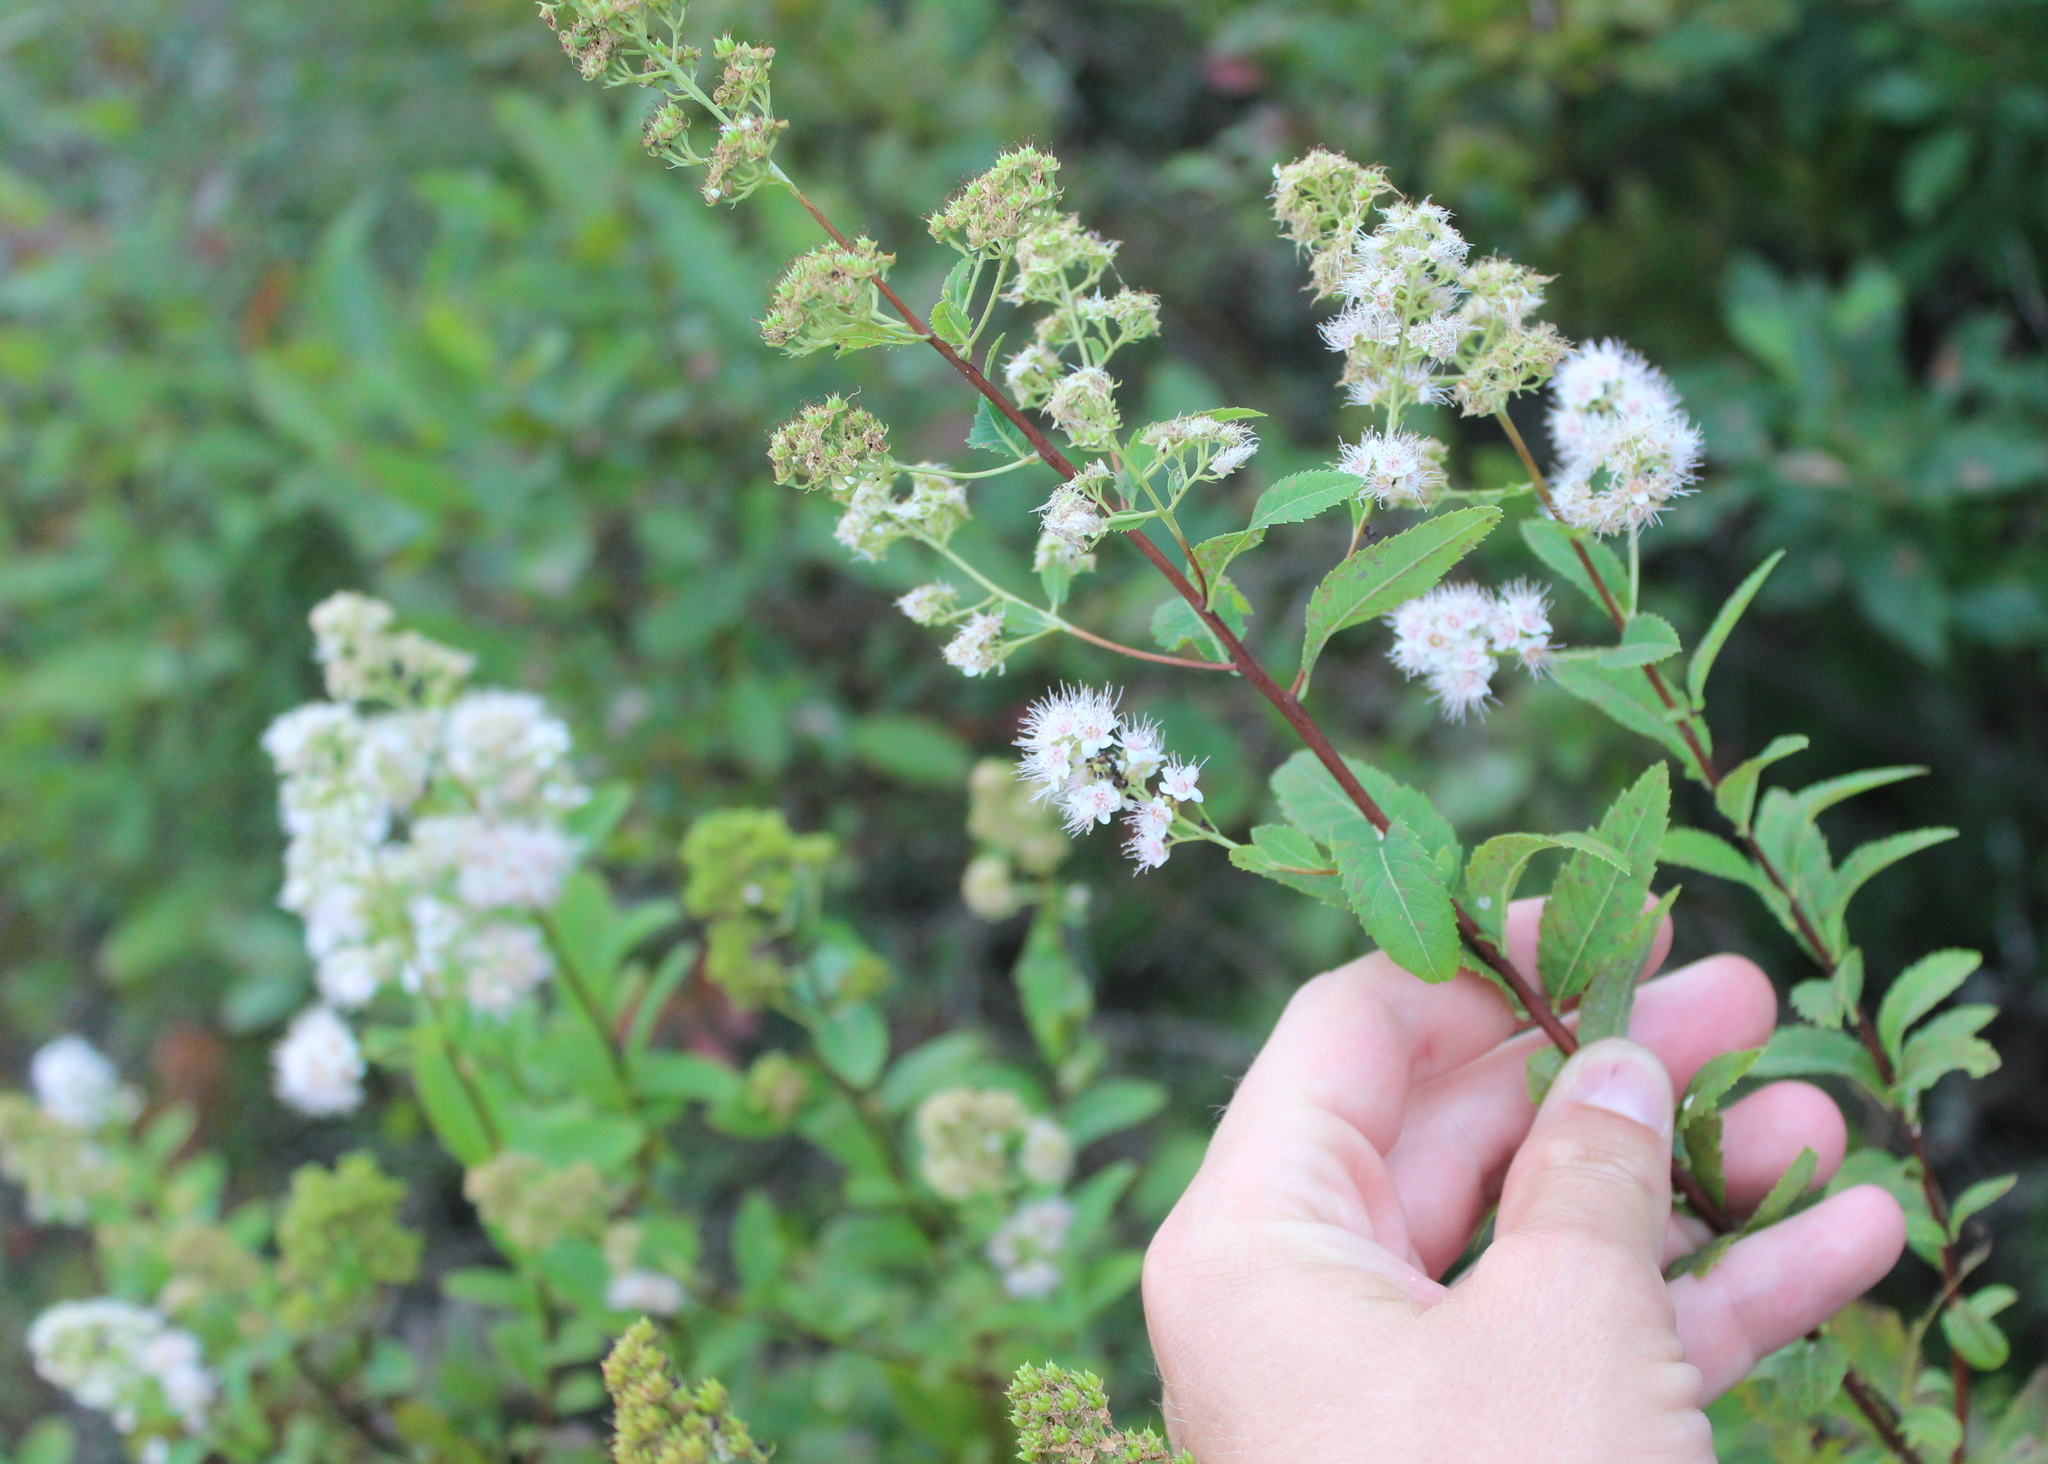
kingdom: Plantae
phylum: Tracheophyta
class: Magnoliopsida
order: Rosales
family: Rosaceae
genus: Spiraea
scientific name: Spiraea alba
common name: Pale bridewort
